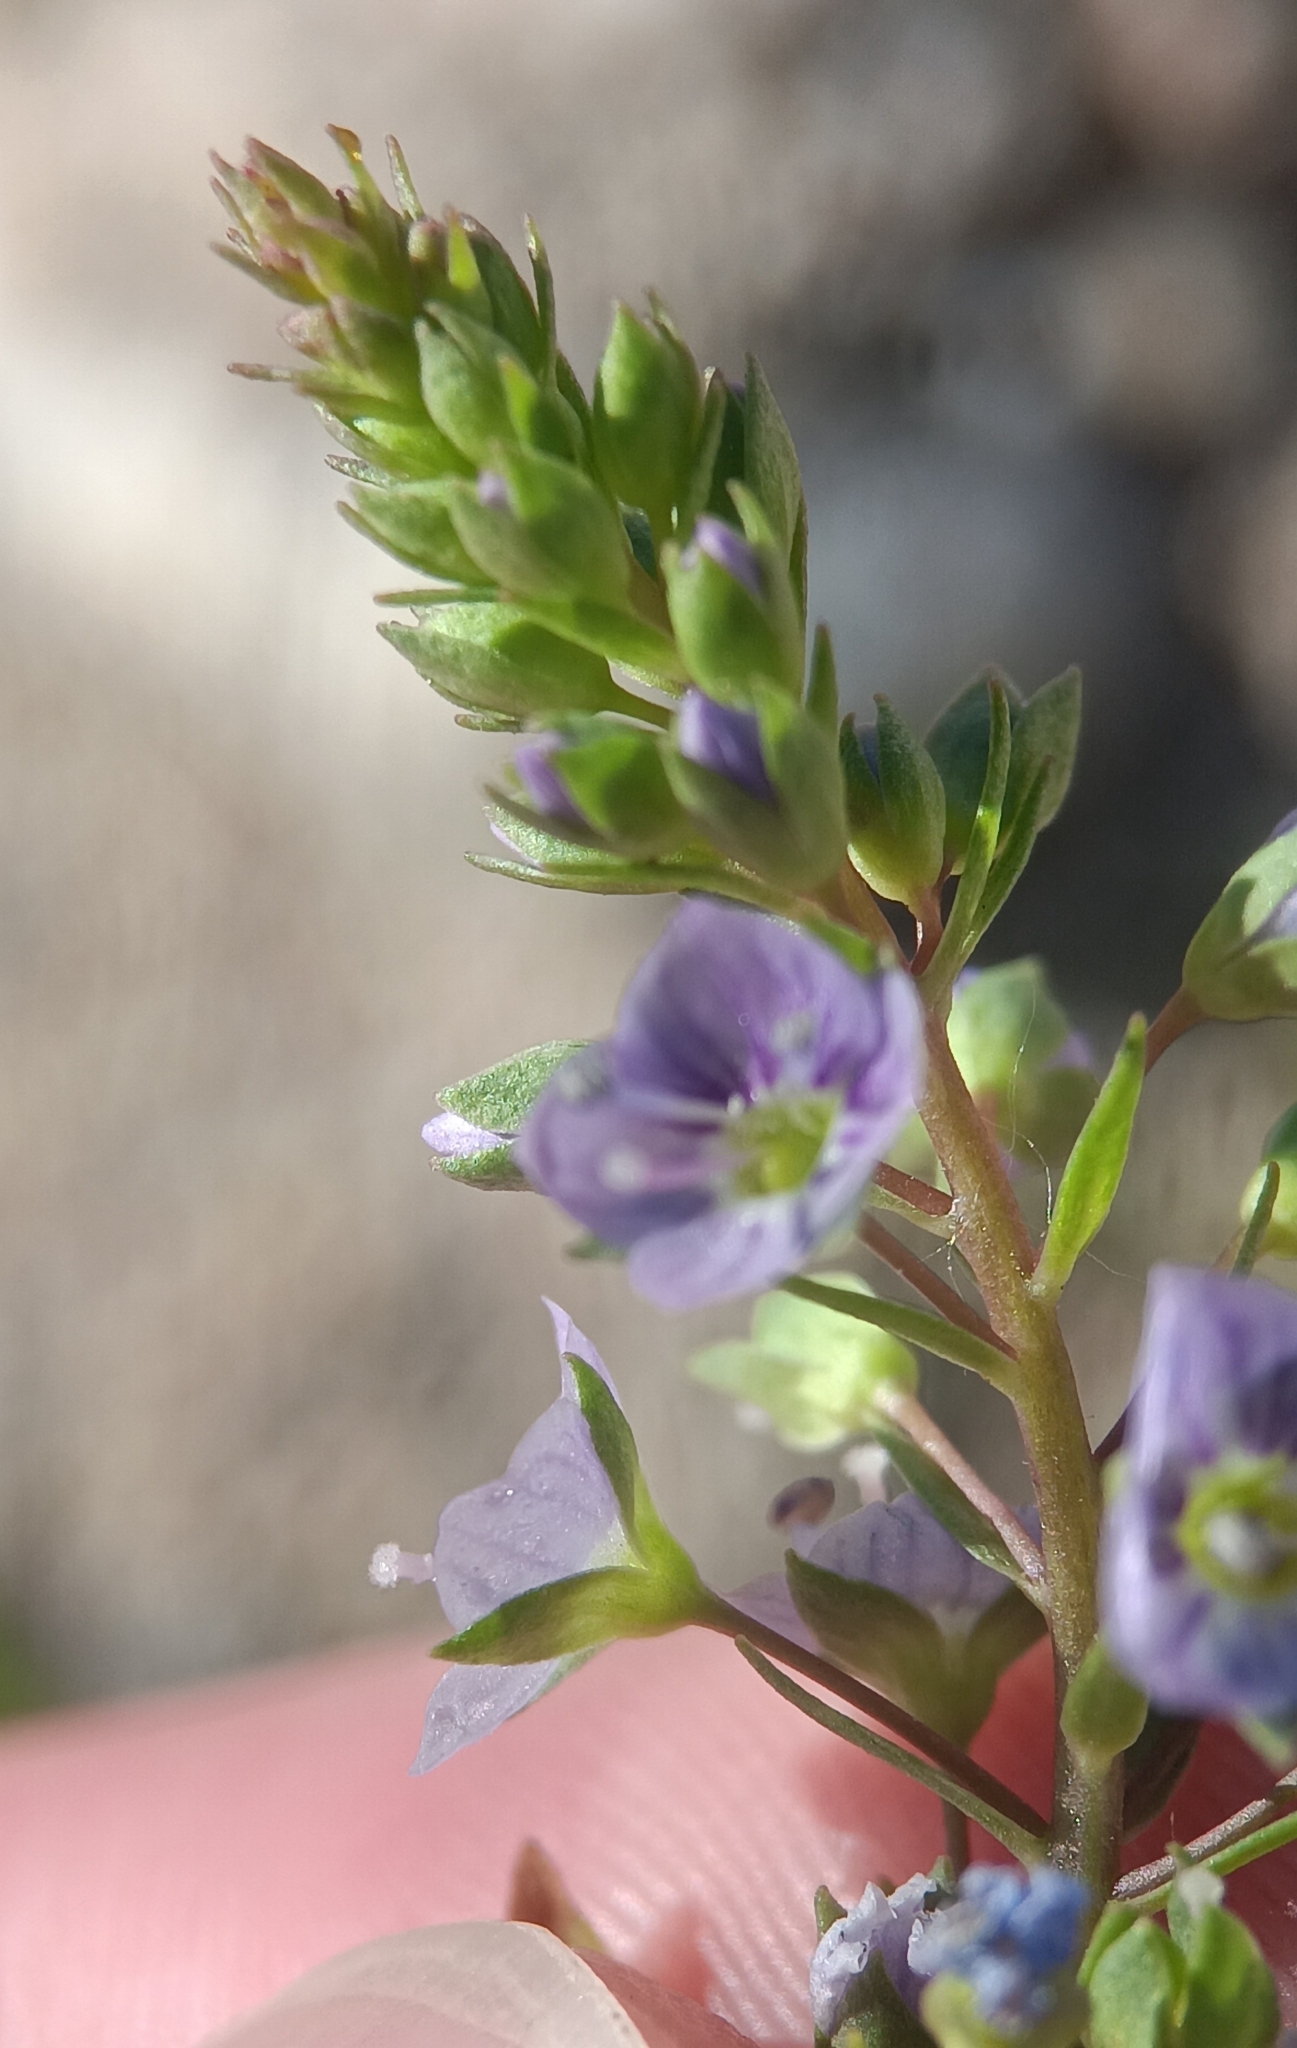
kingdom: Plantae
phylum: Tracheophyta
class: Magnoliopsida
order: Lamiales
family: Plantaginaceae
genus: Veronica
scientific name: Veronica anagallis-aquatica
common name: Water speedwell
